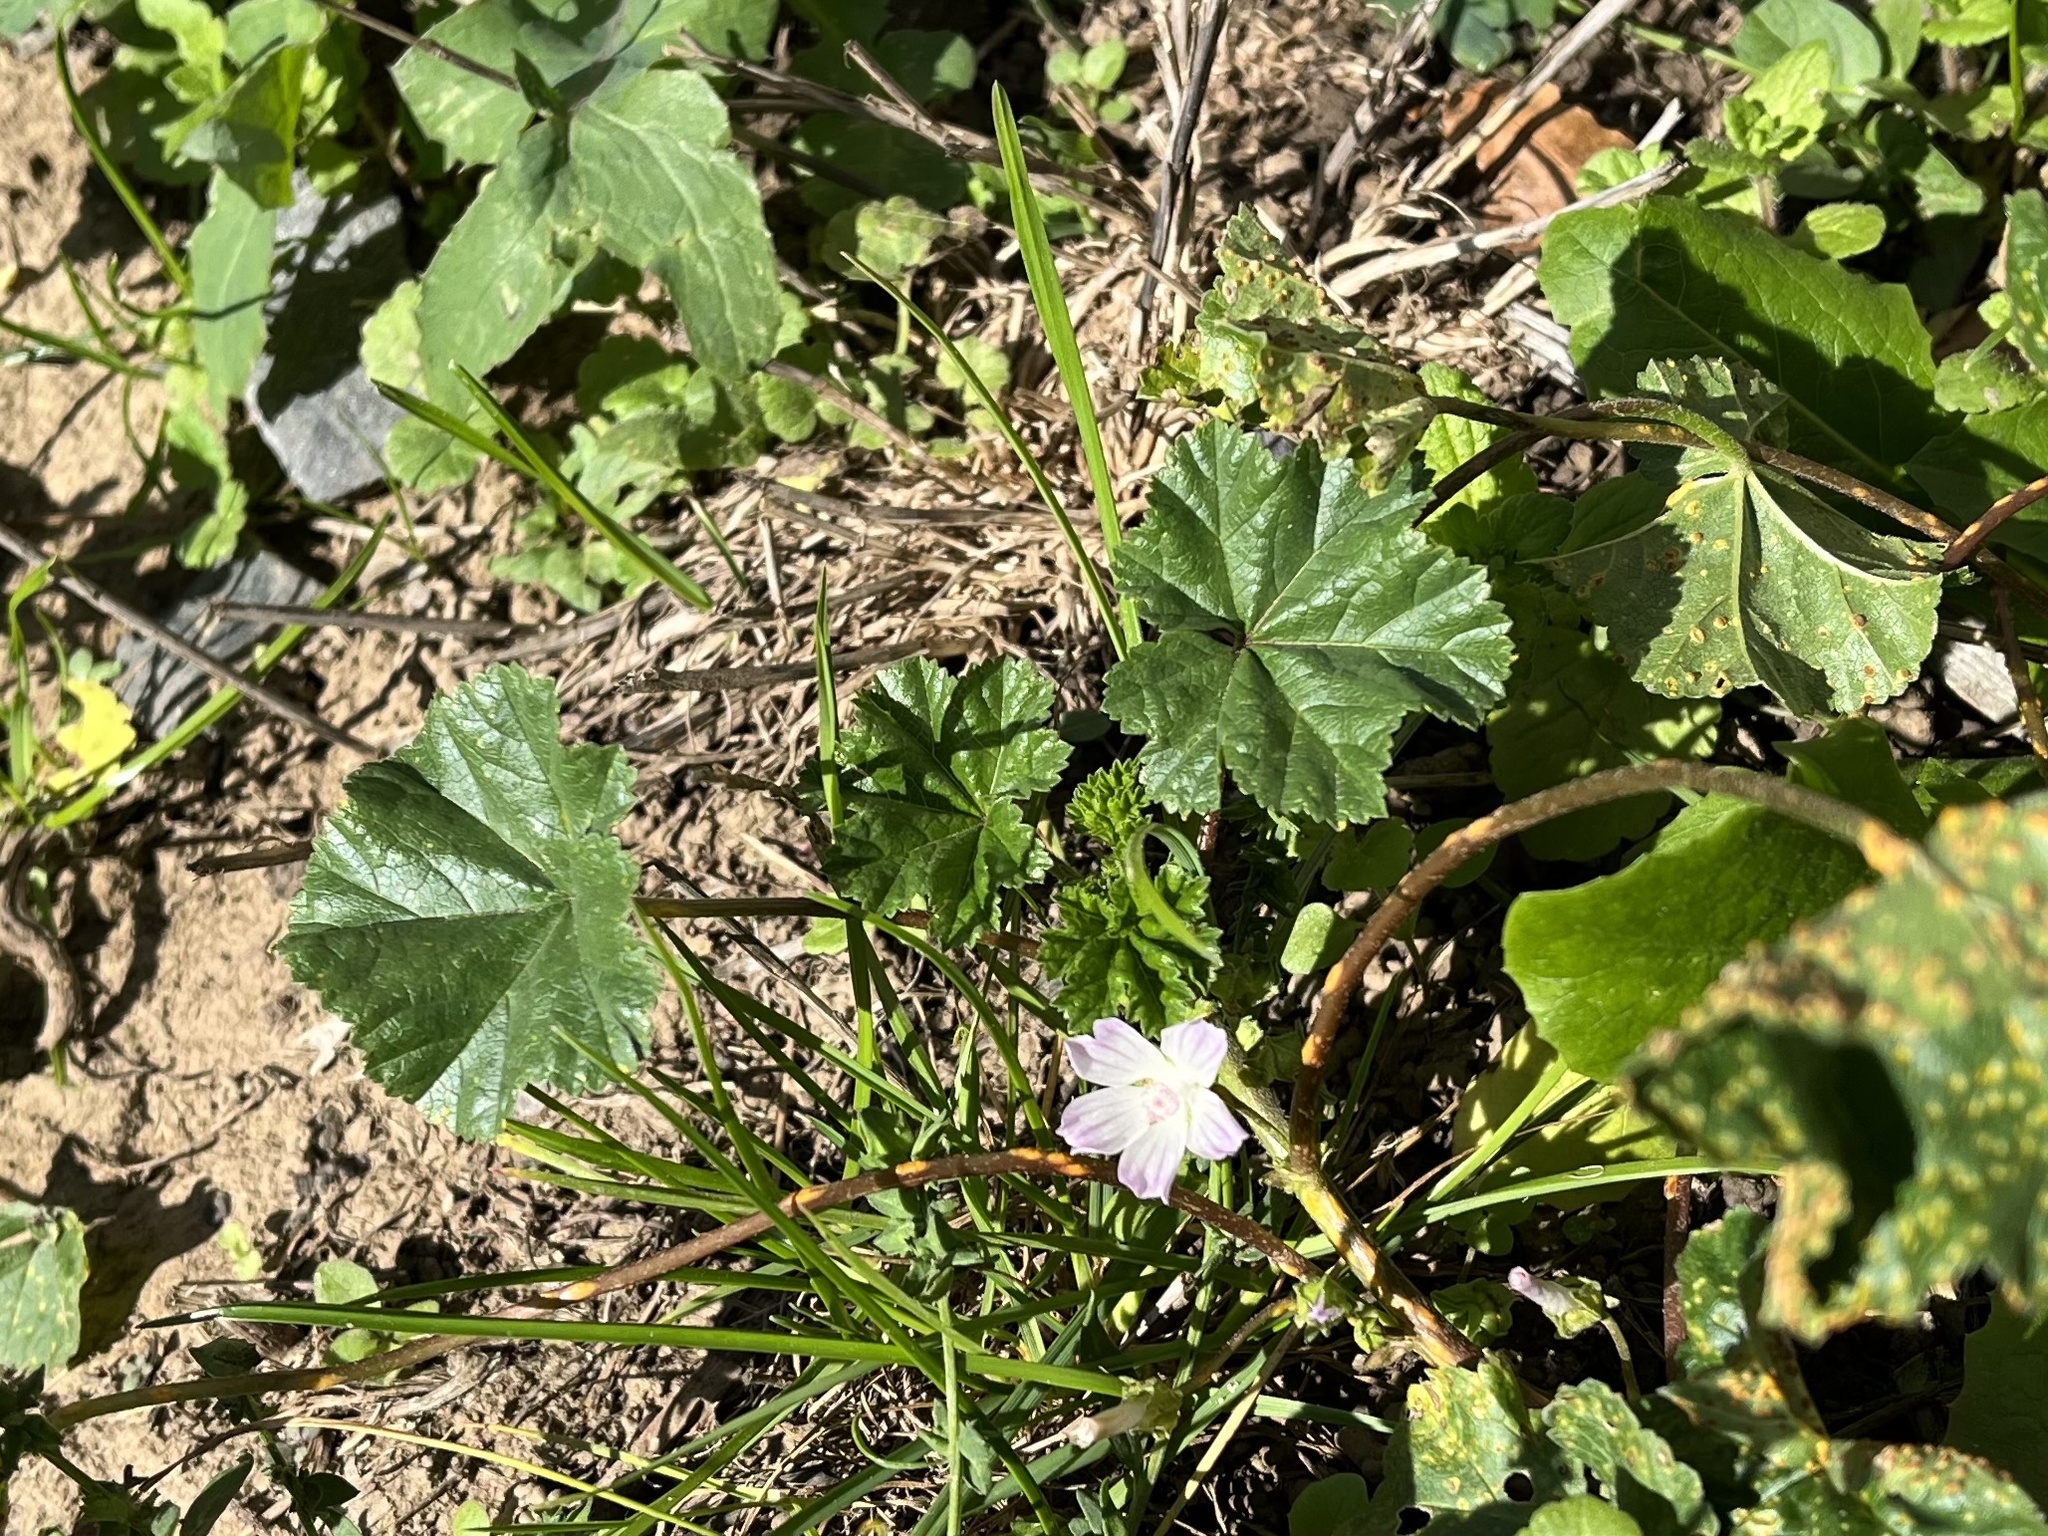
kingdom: Plantae
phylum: Tracheophyta
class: Magnoliopsida
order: Malvales
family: Malvaceae
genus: Malva
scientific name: Malva neglecta
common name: Common mallow
